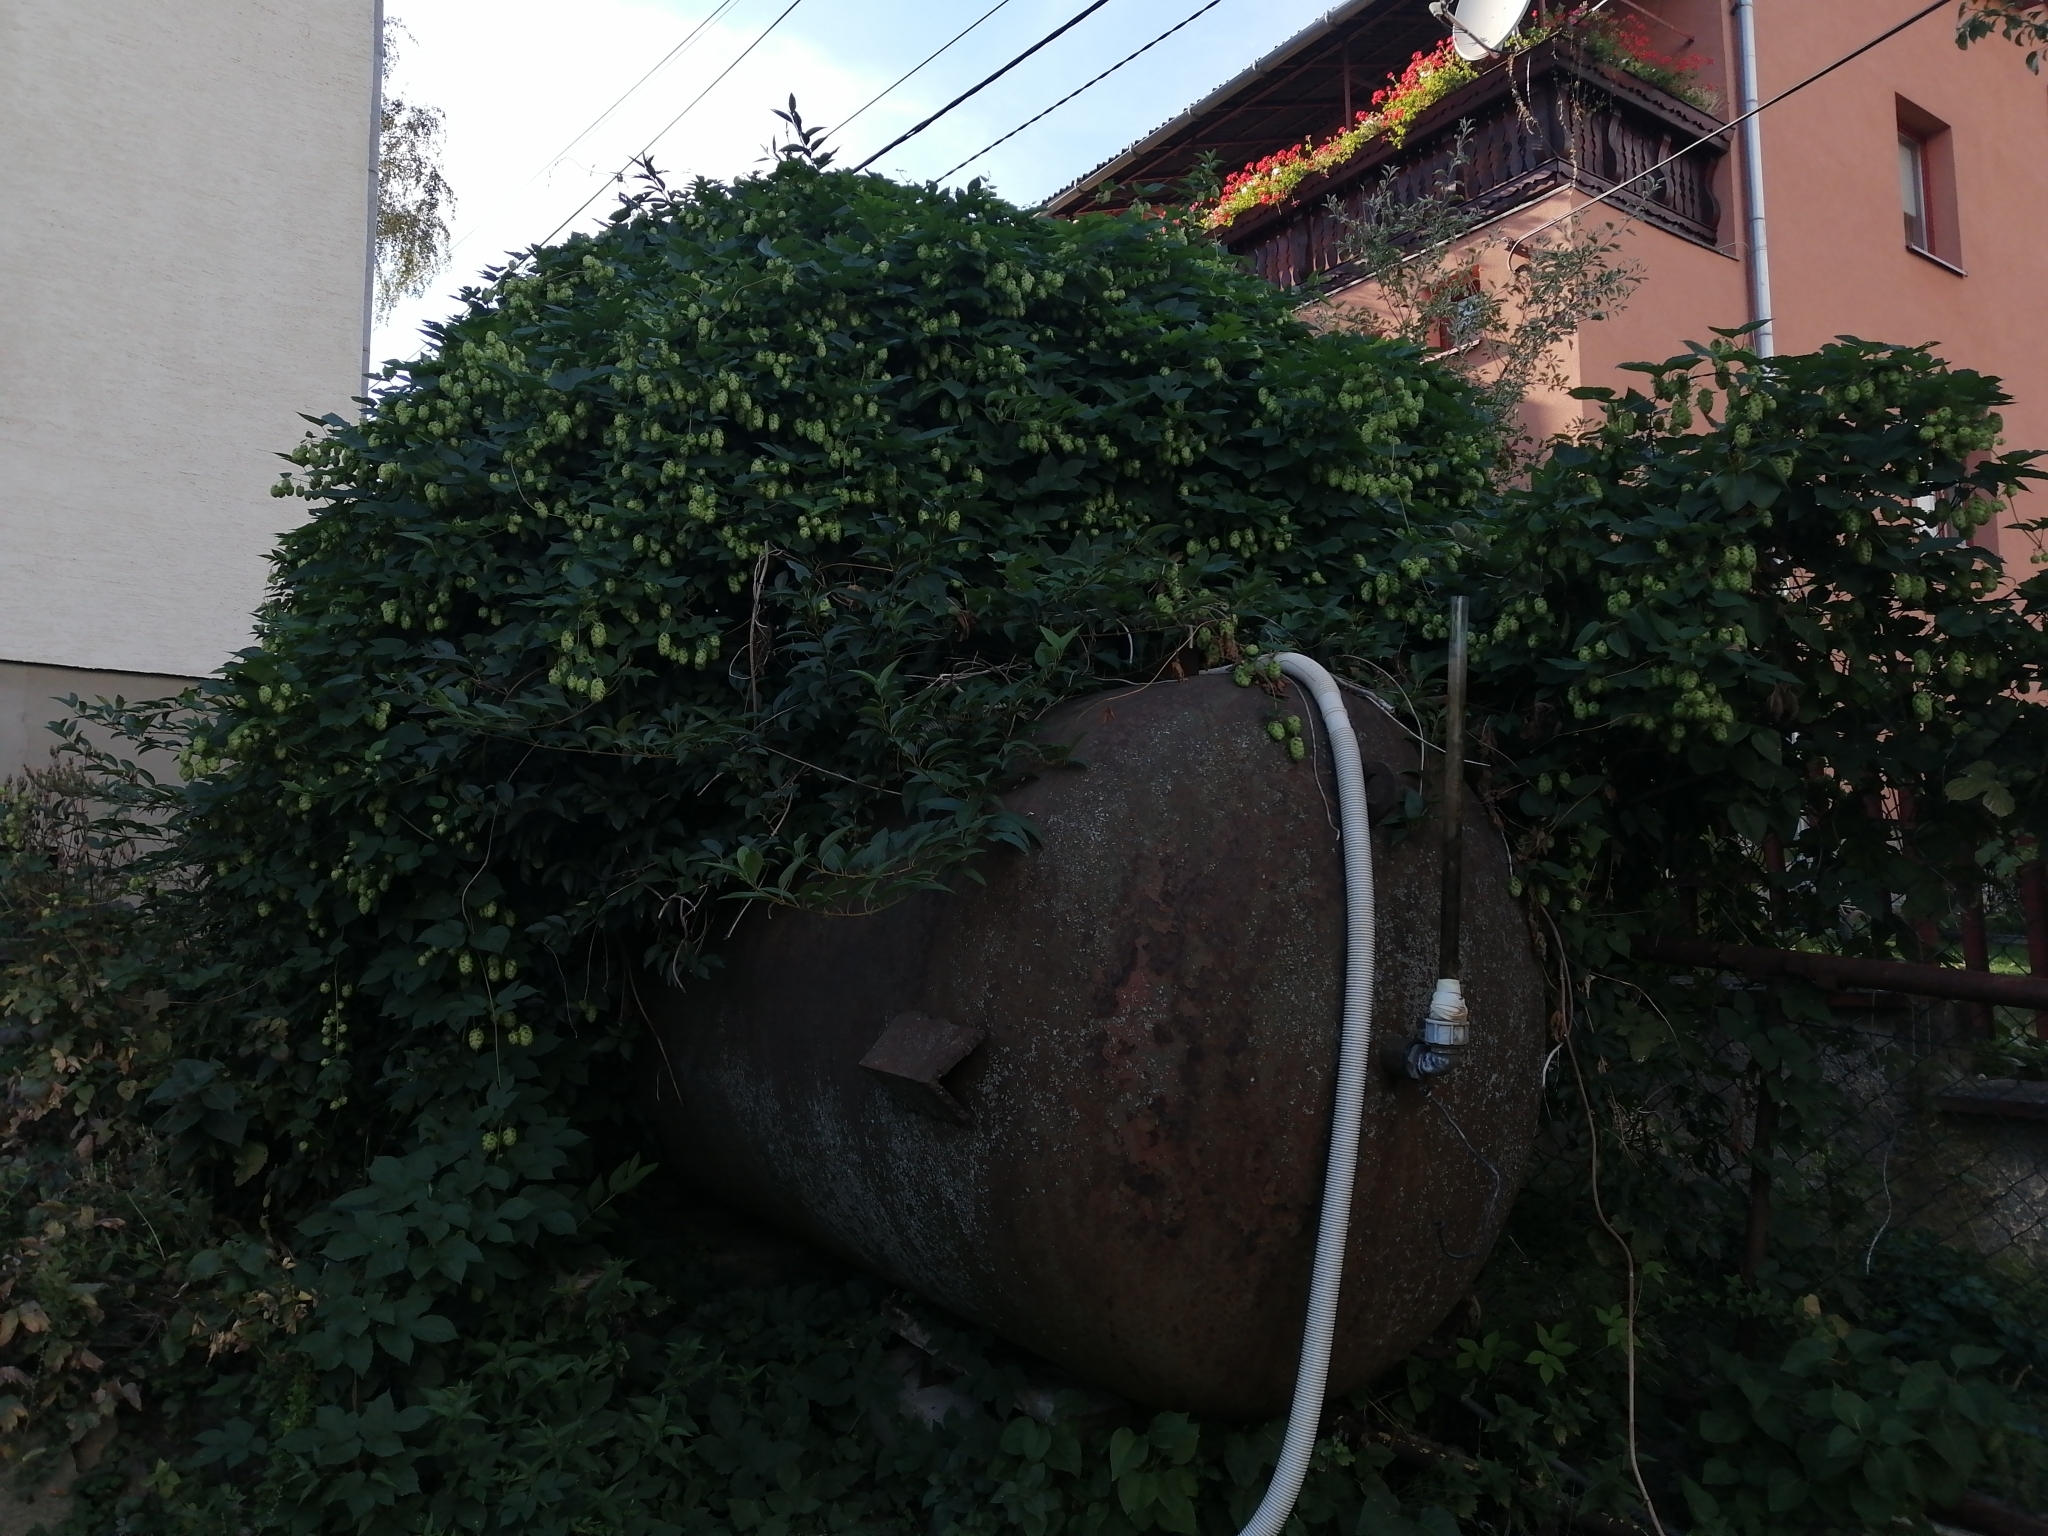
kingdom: Plantae
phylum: Tracheophyta
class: Magnoliopsida
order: Rosales
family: Cannabaceae
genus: Humulus
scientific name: Humulus lupulus
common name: Hop
